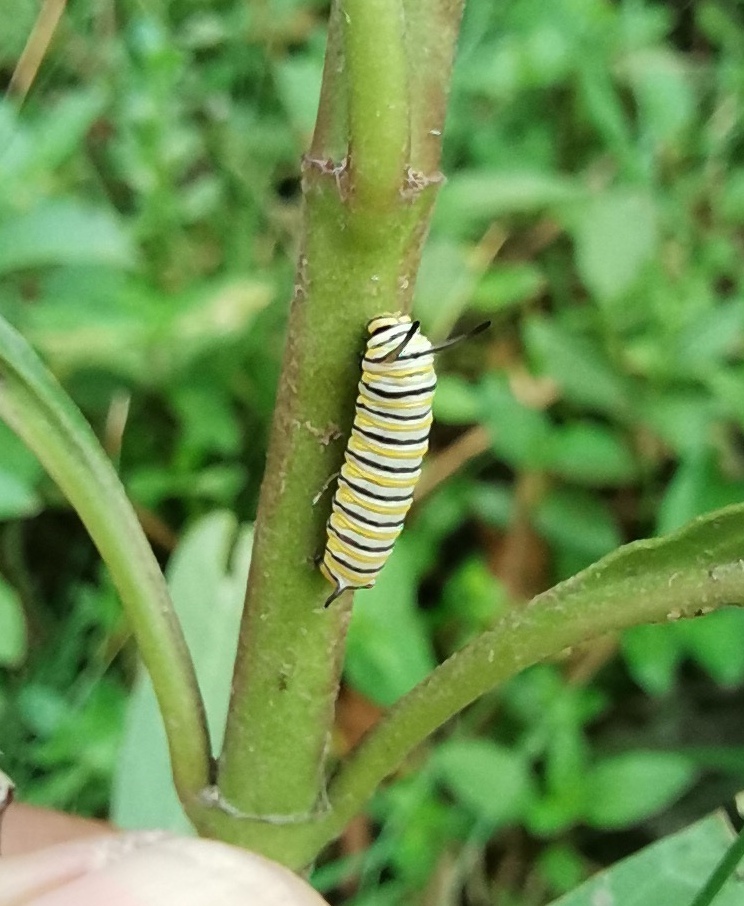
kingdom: Animalia
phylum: Arthropoda
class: Insecta
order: Lepidoptera
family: Nymphalidae
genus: Danaus
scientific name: Danaus plexippus
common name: Monarch
